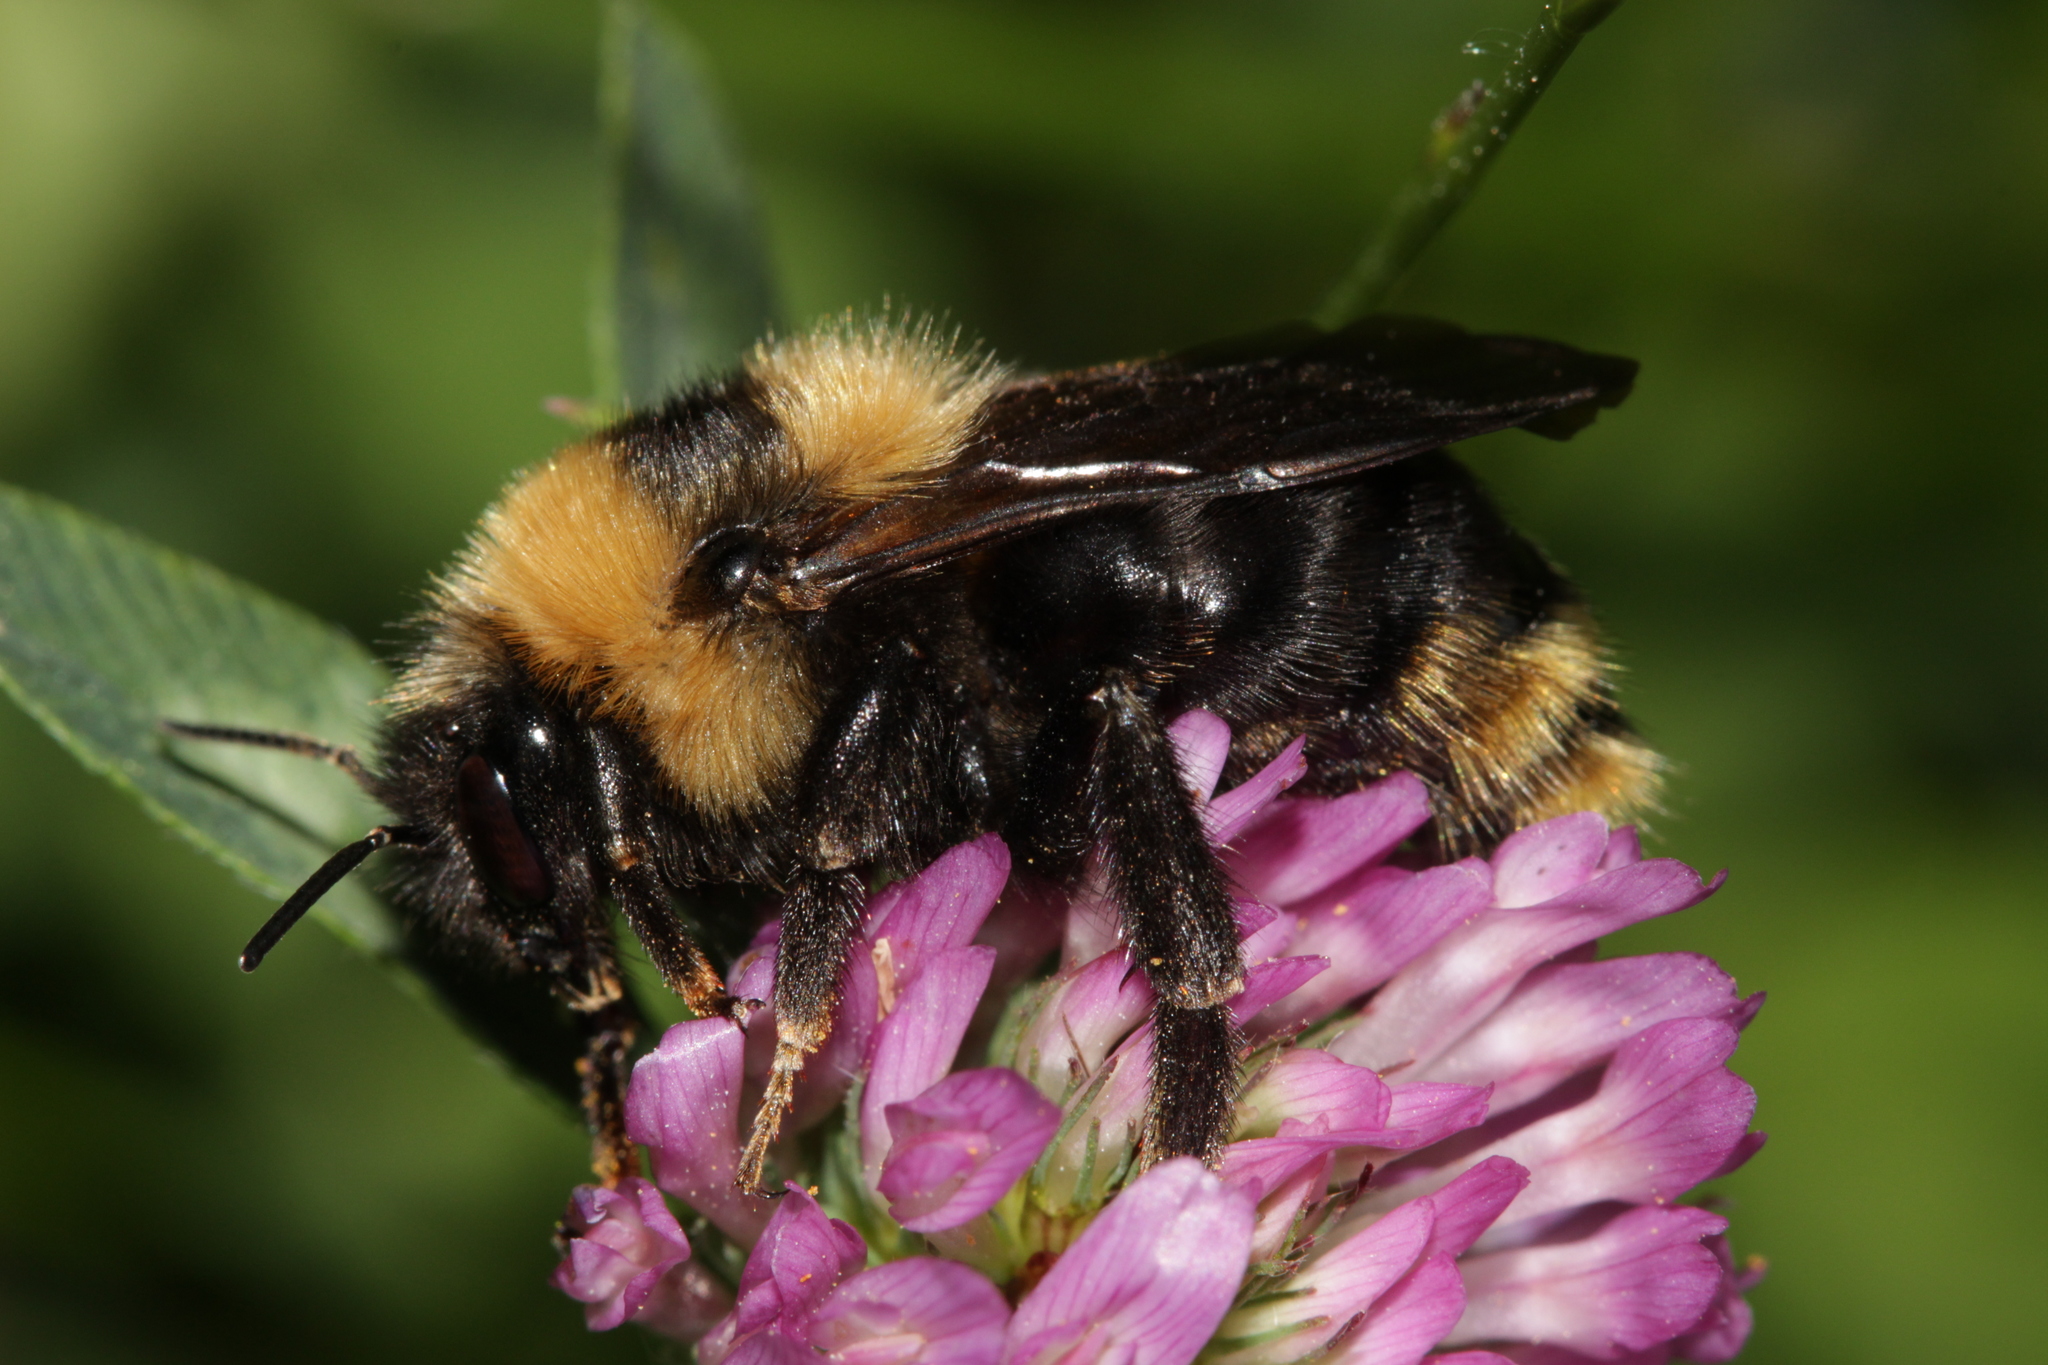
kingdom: Animalia
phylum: Arthropoda
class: Insecta
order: Hymenoptera
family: Apidae
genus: Bombus
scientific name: Bombus campestris
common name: Field cuckoo-bee
